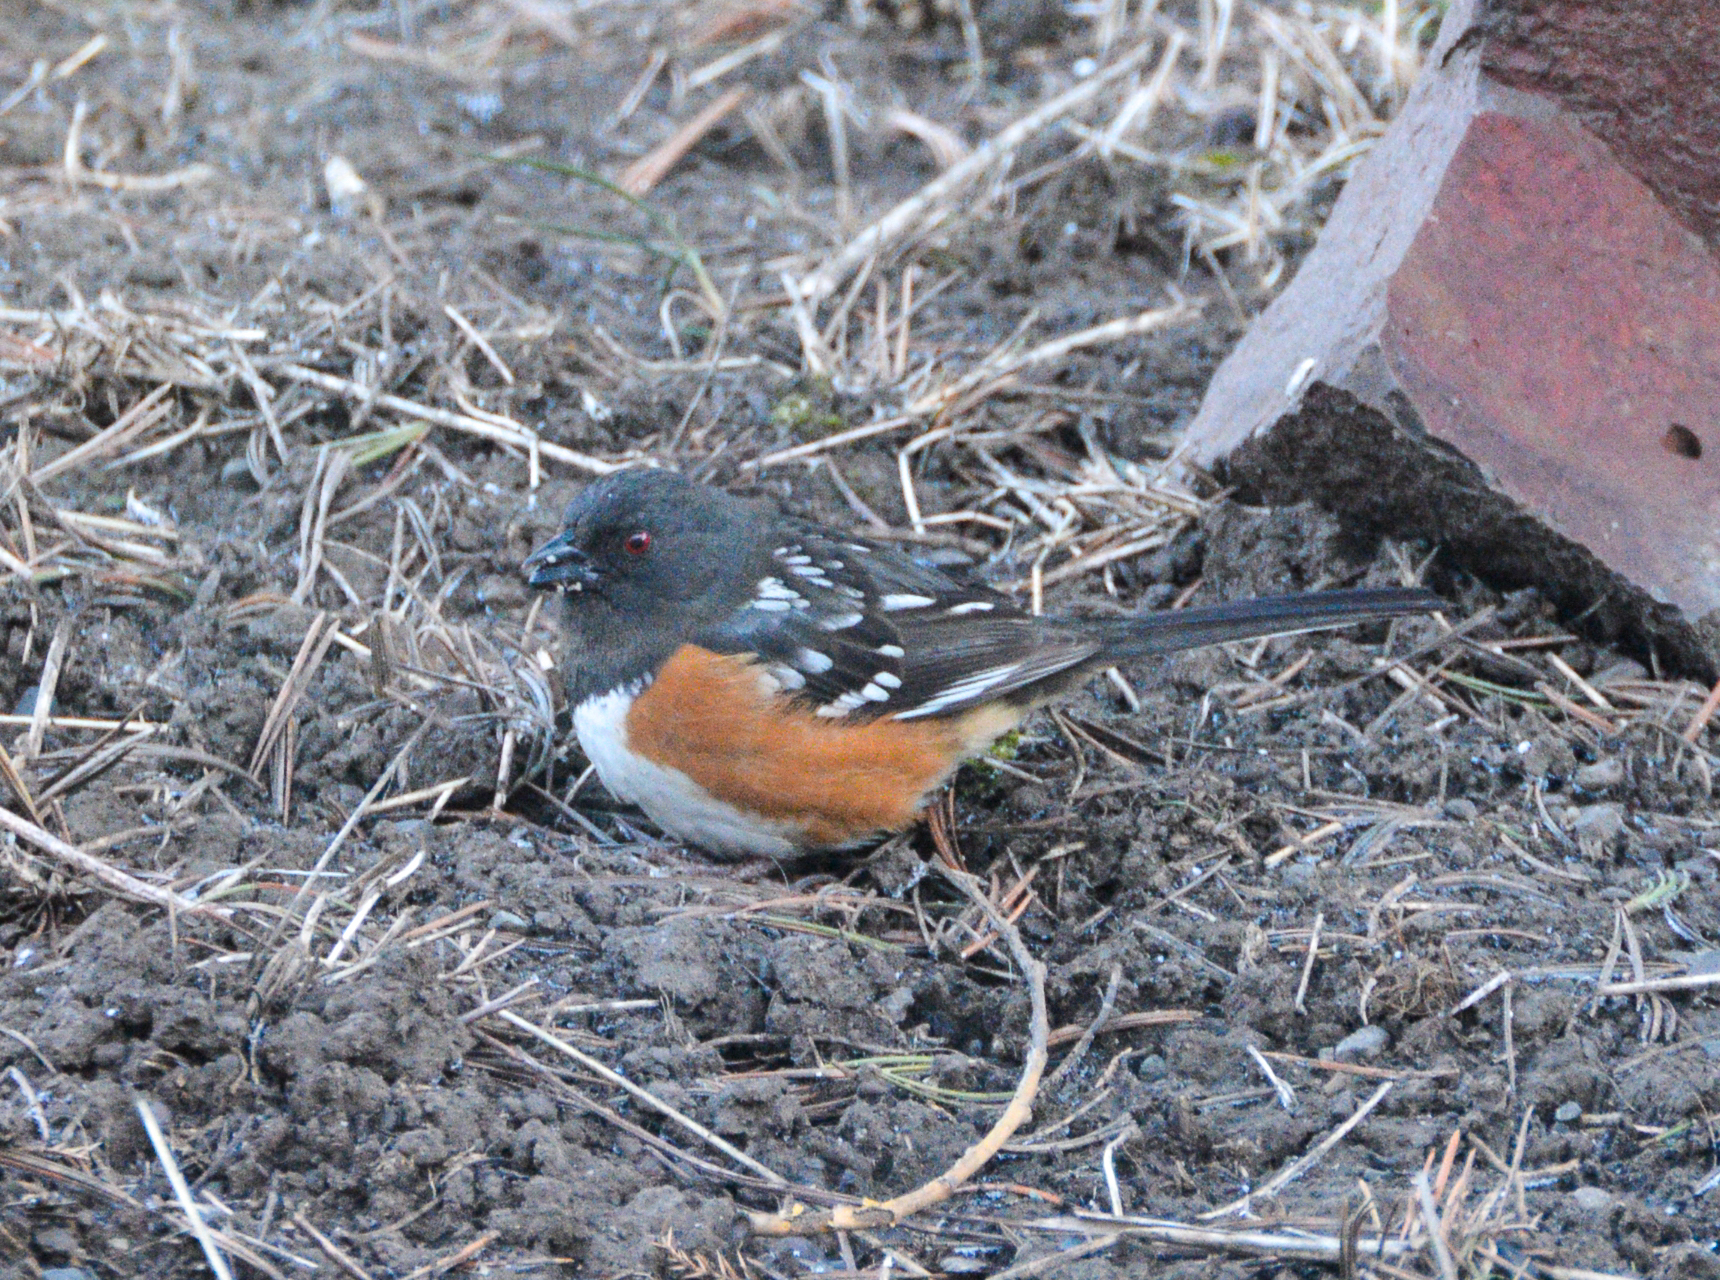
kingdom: Animalia
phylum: Chordata
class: Aves
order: Passeriformes
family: Passerellidae
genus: Pipilo
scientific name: Pipilo maculatus
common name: Spotted towhee
